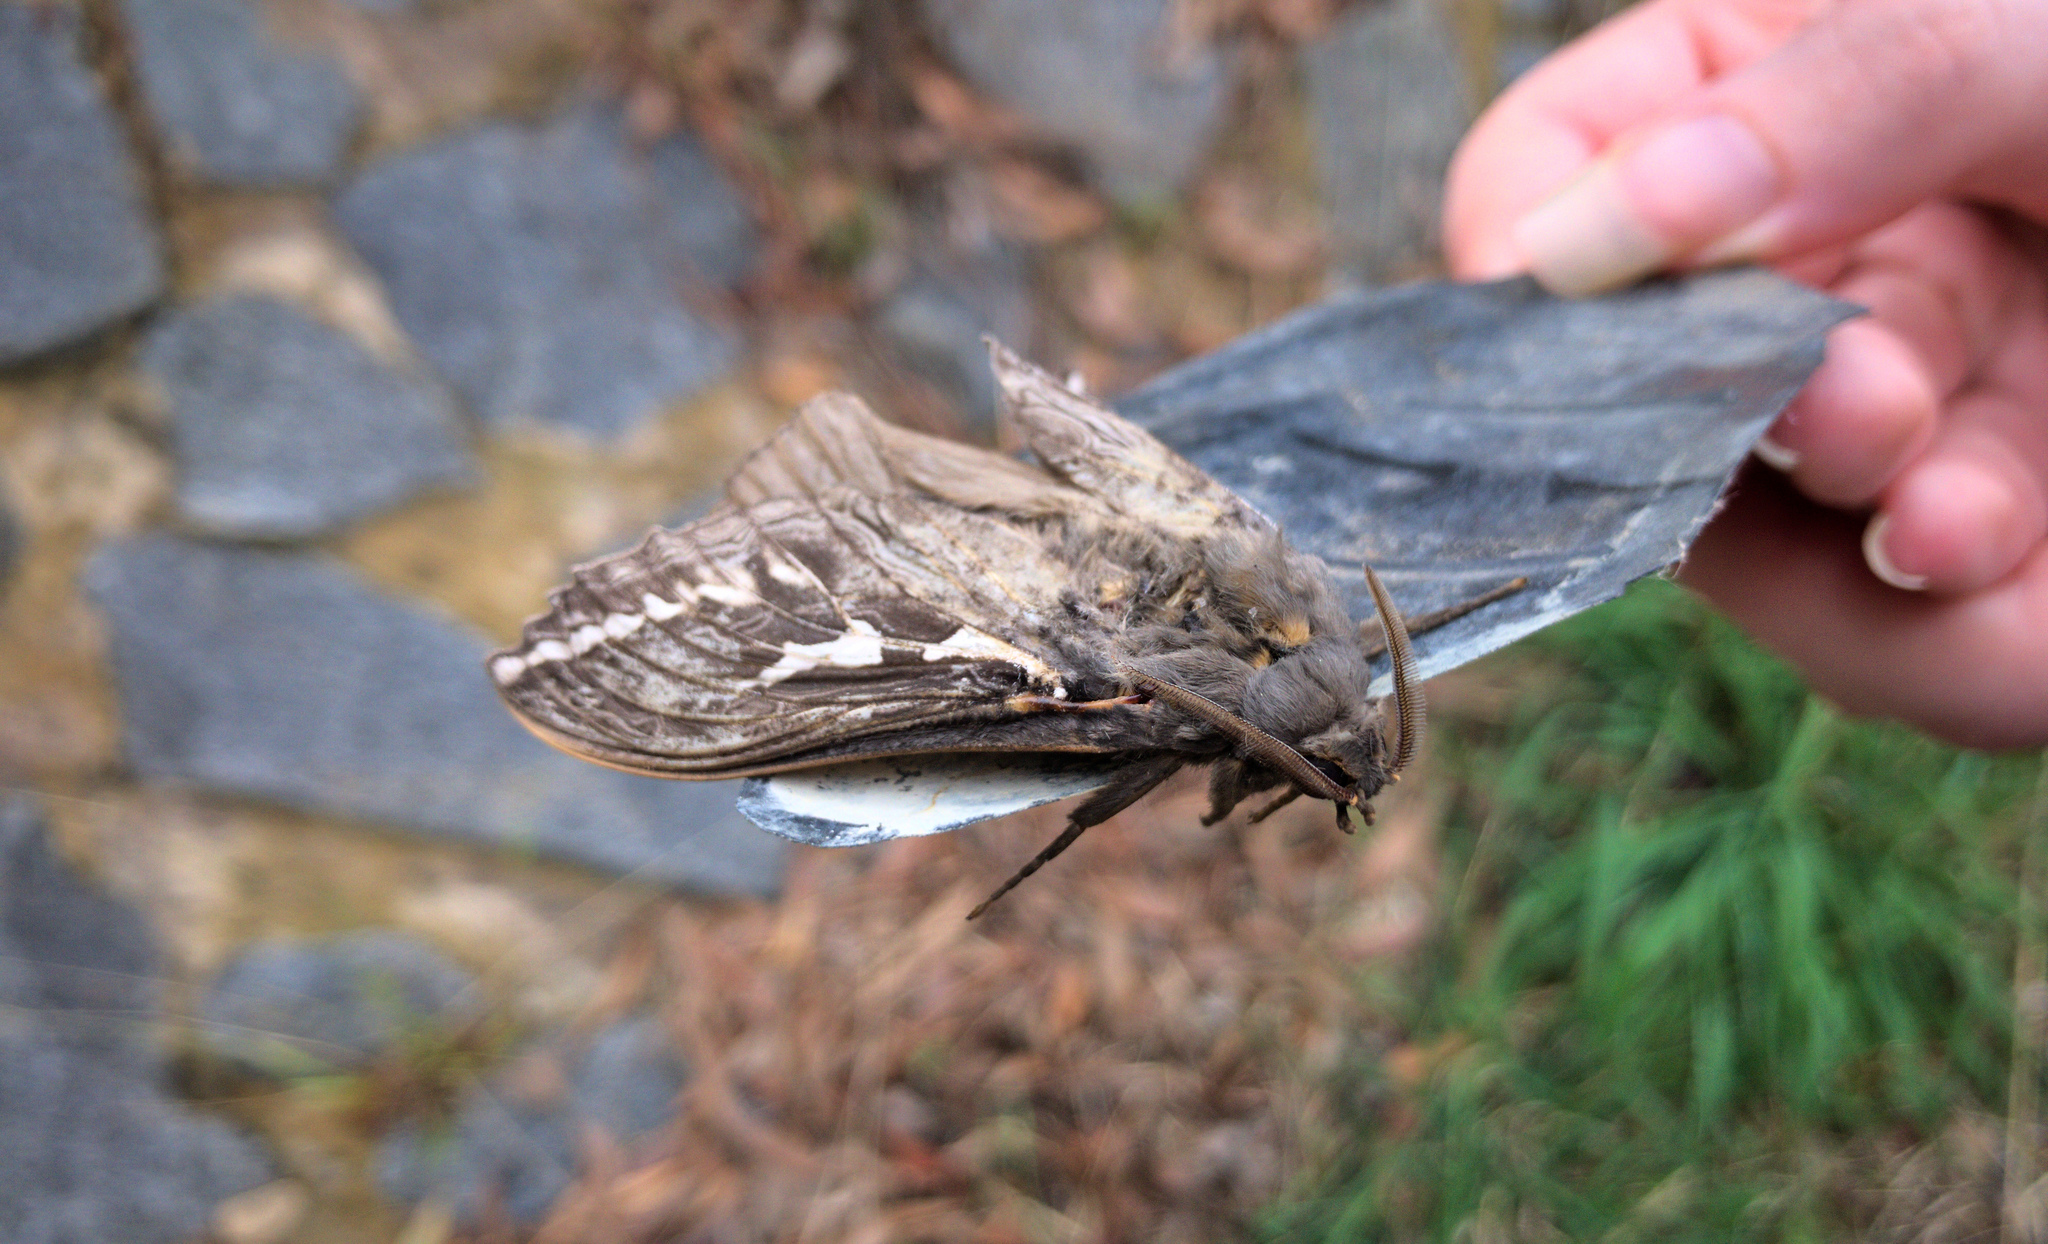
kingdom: Animalia
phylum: Arthropoda
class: Insecta
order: Lepidoptera
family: Hepialidae
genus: Abantiades
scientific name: Abantiades argentata
